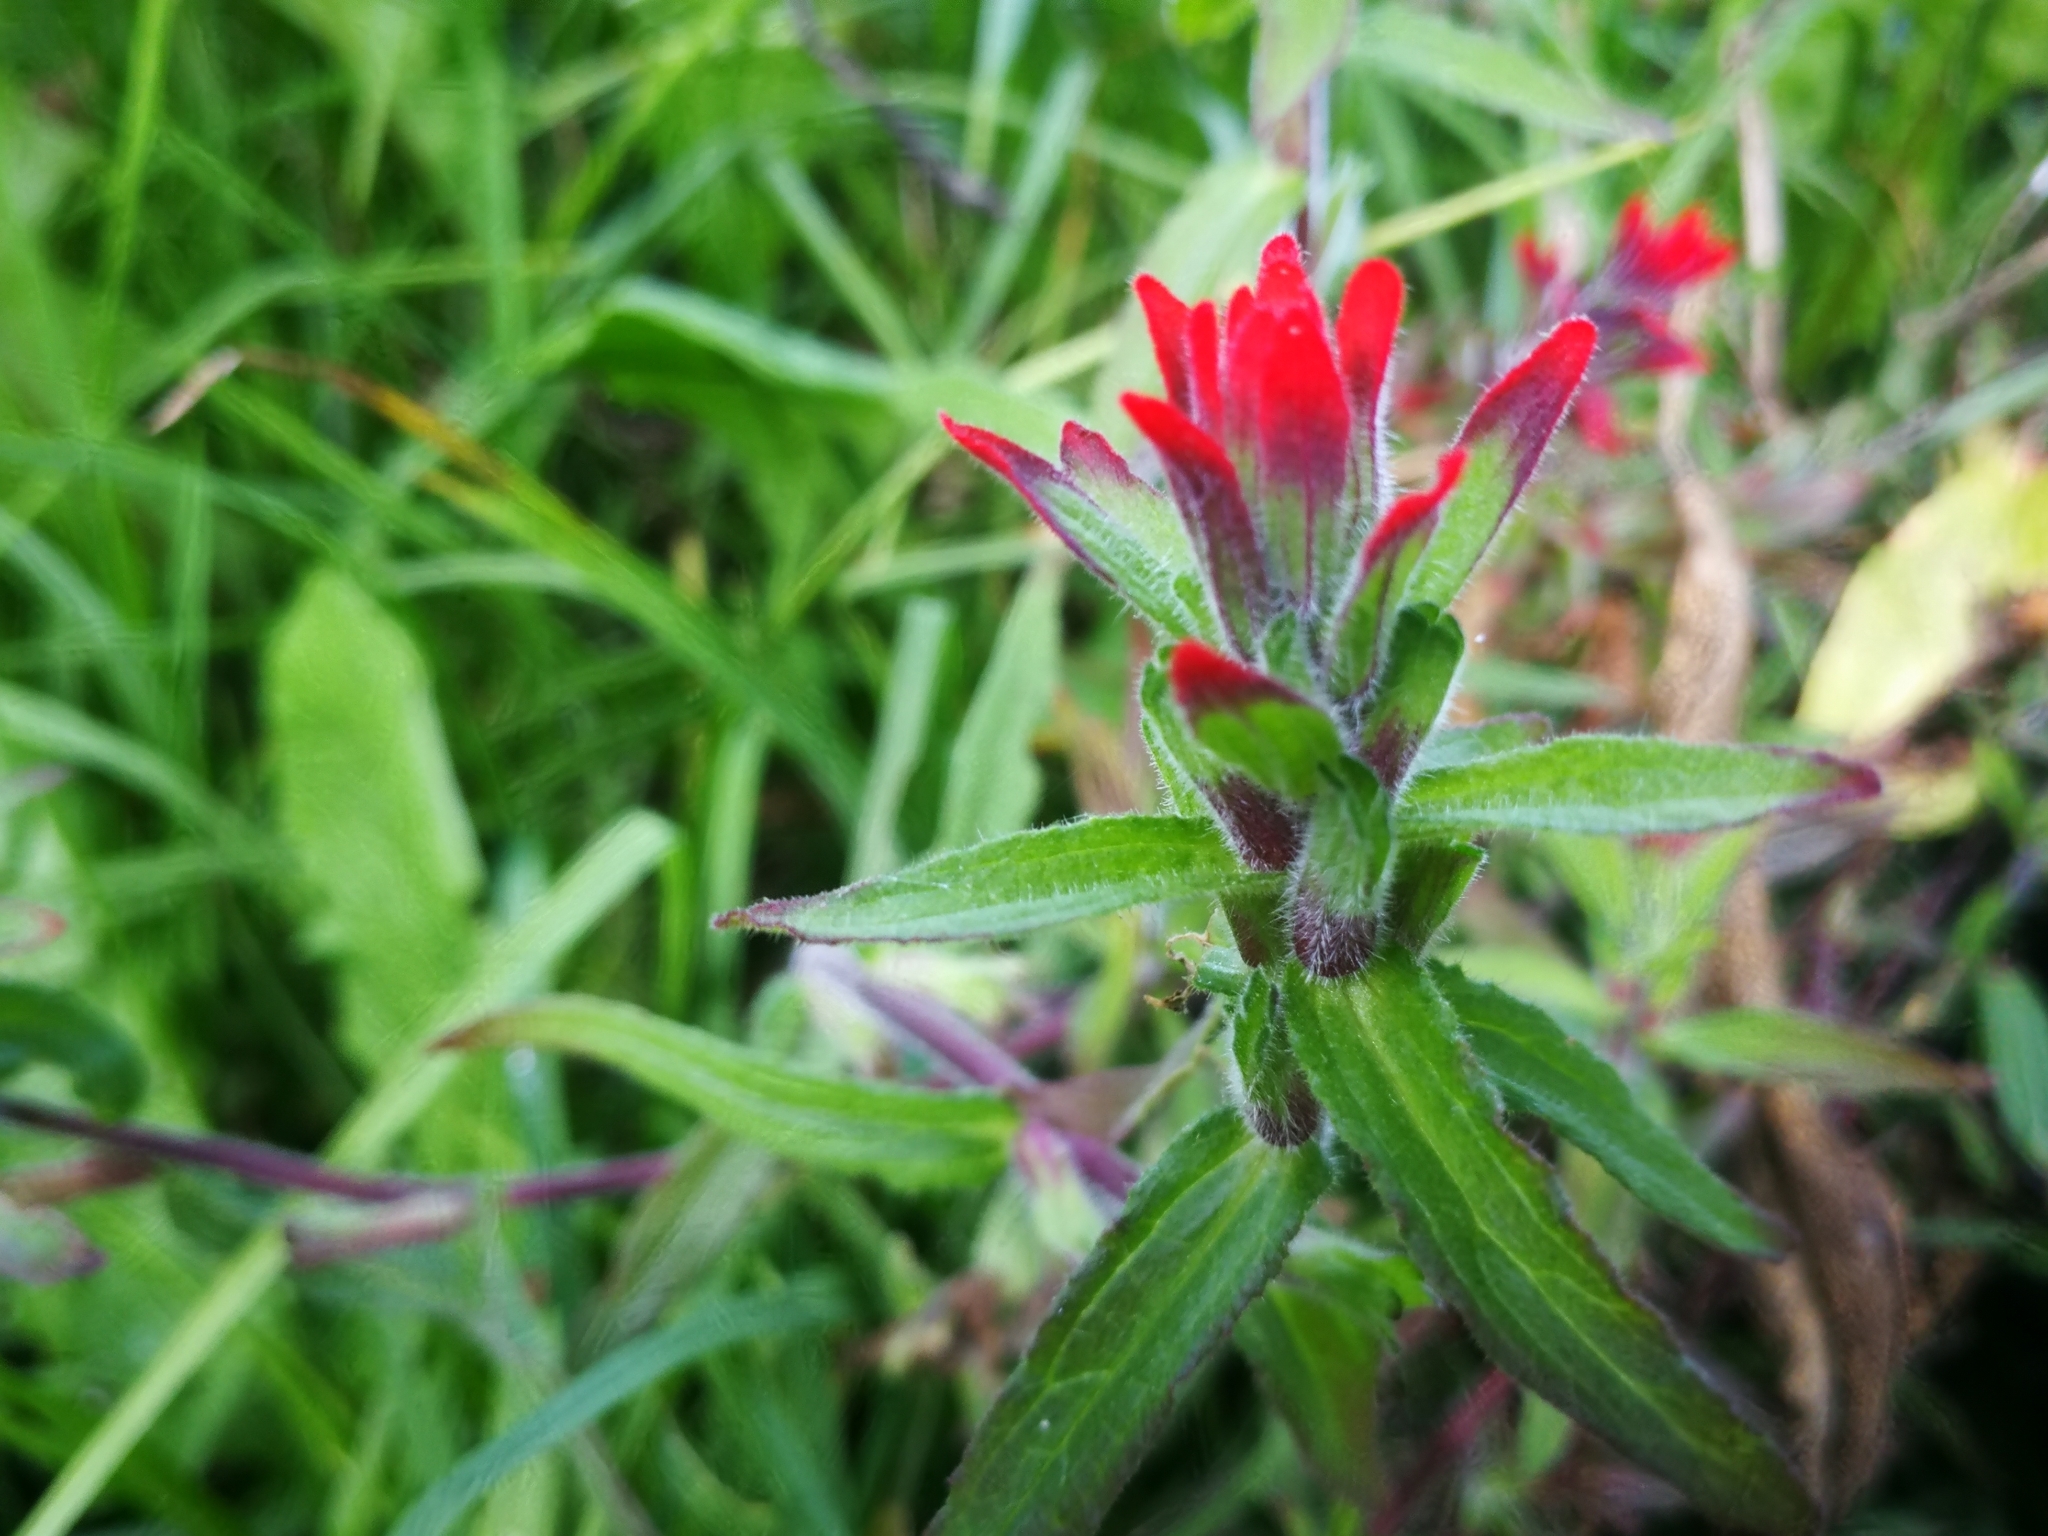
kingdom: Plantae
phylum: Tracheophyta
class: Magnoliopsida
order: Lamiales
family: Orobanchaceae
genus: Castilleja
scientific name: Castilleja arvensis
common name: Indian paintbrush
